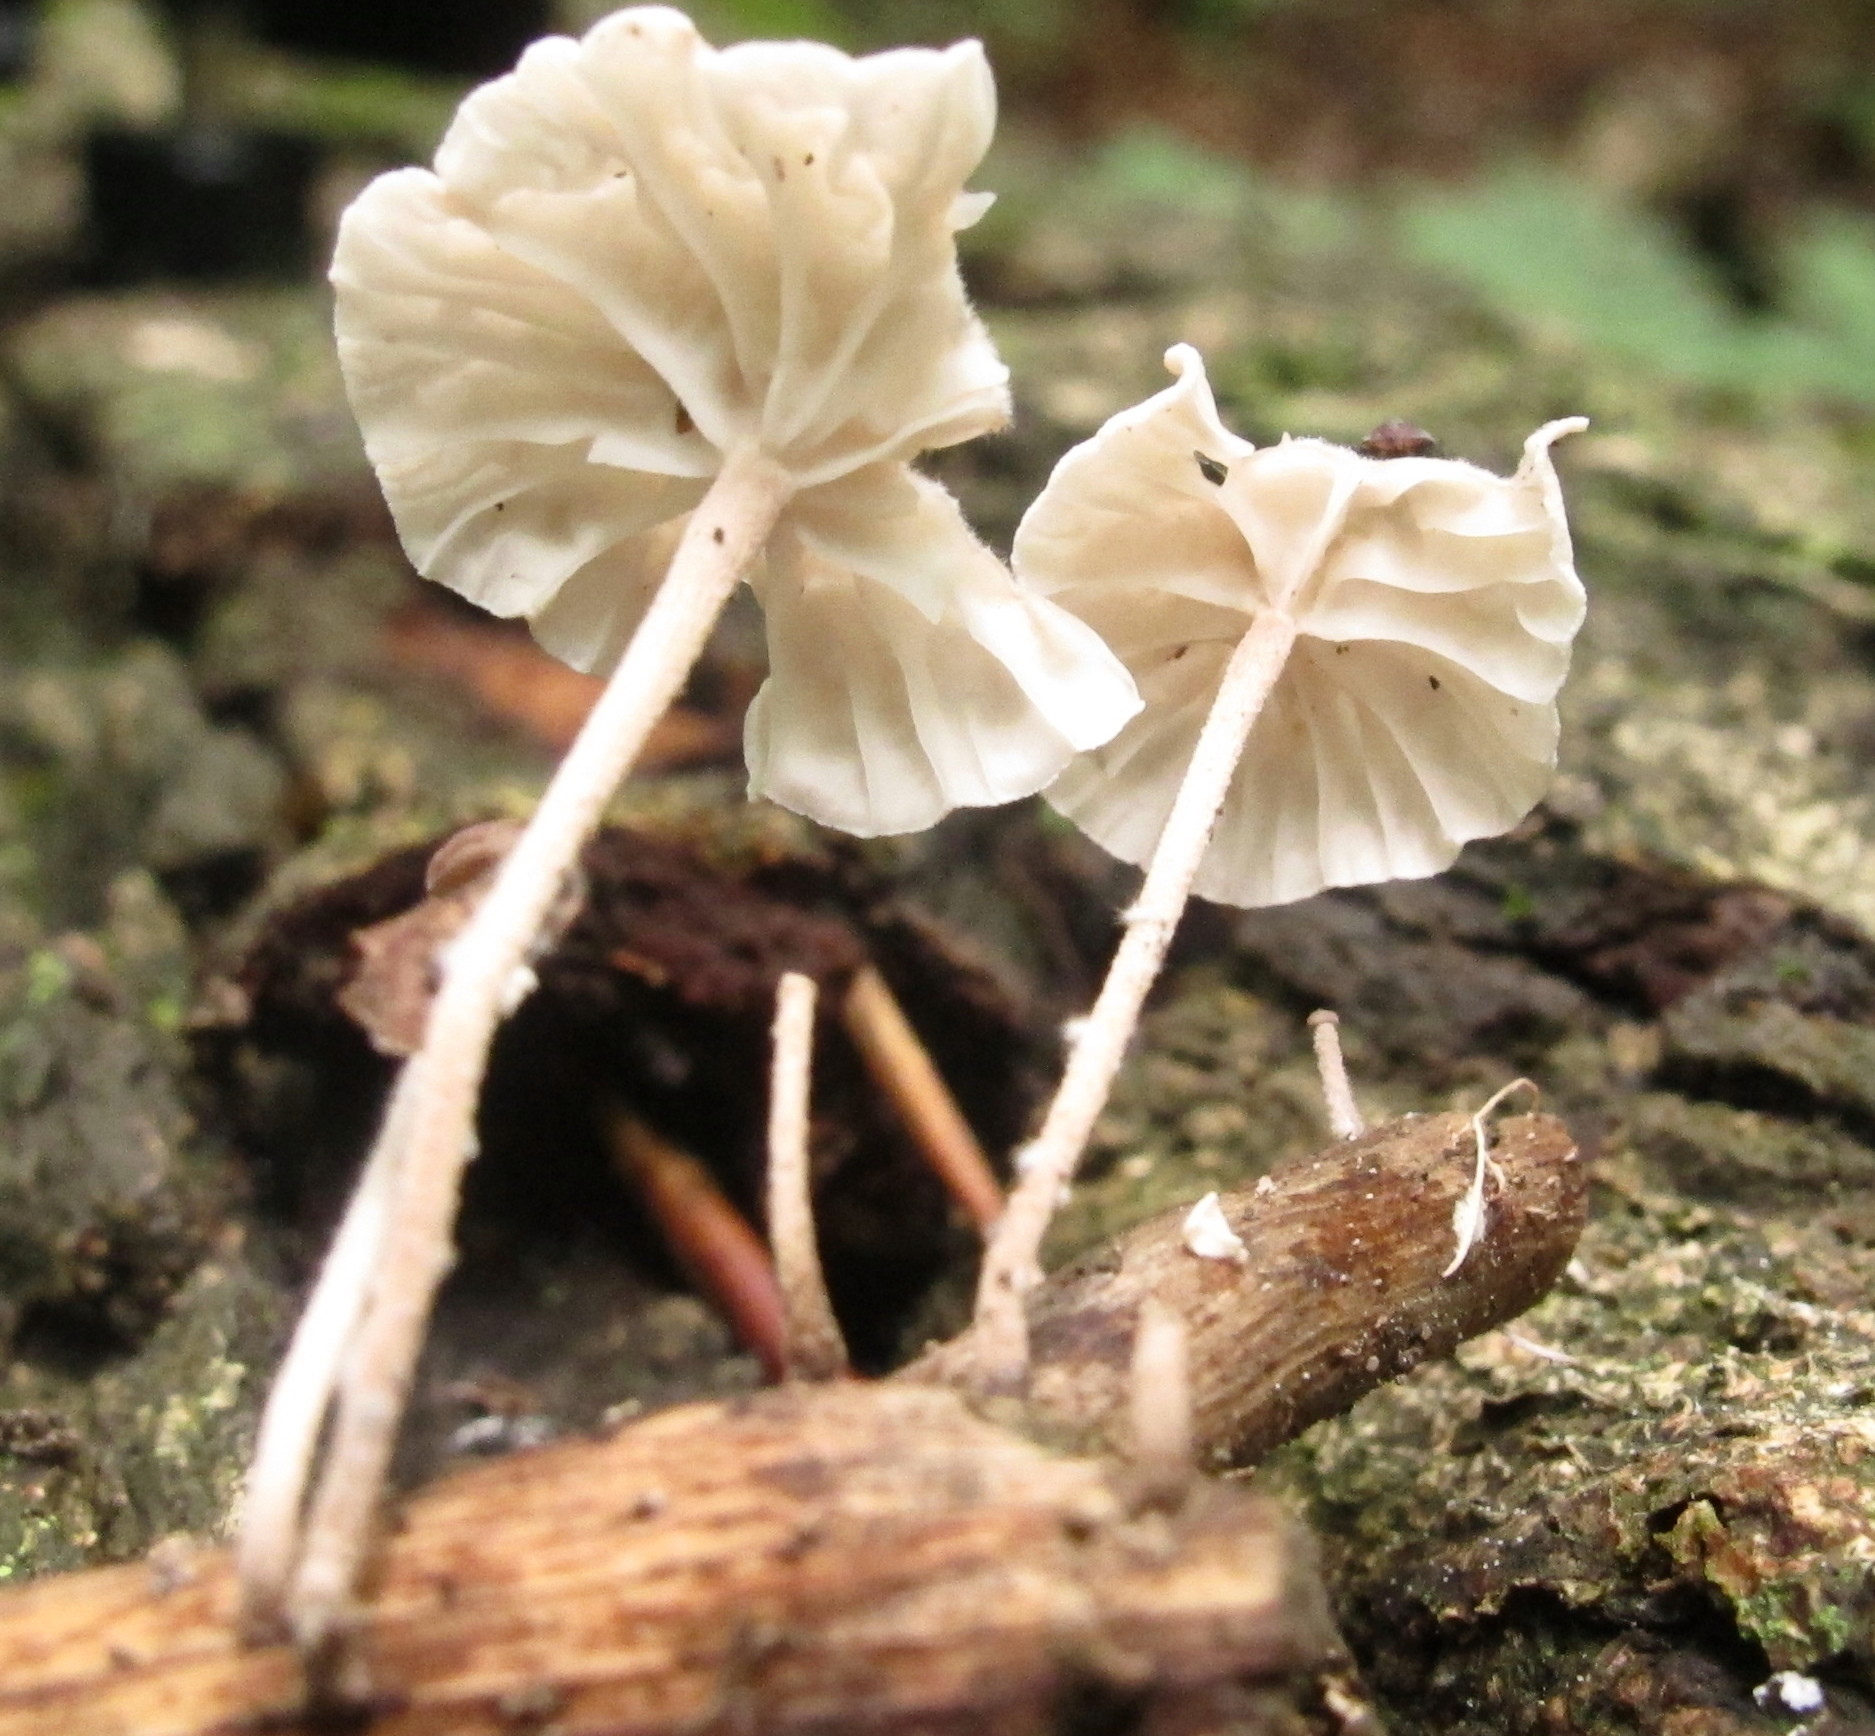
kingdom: Fungi
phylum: Basidiomycota
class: Agaricomycetes
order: Agaricales
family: Omphalotaceae
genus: Mycetinis
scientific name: Mycetinis opacus
